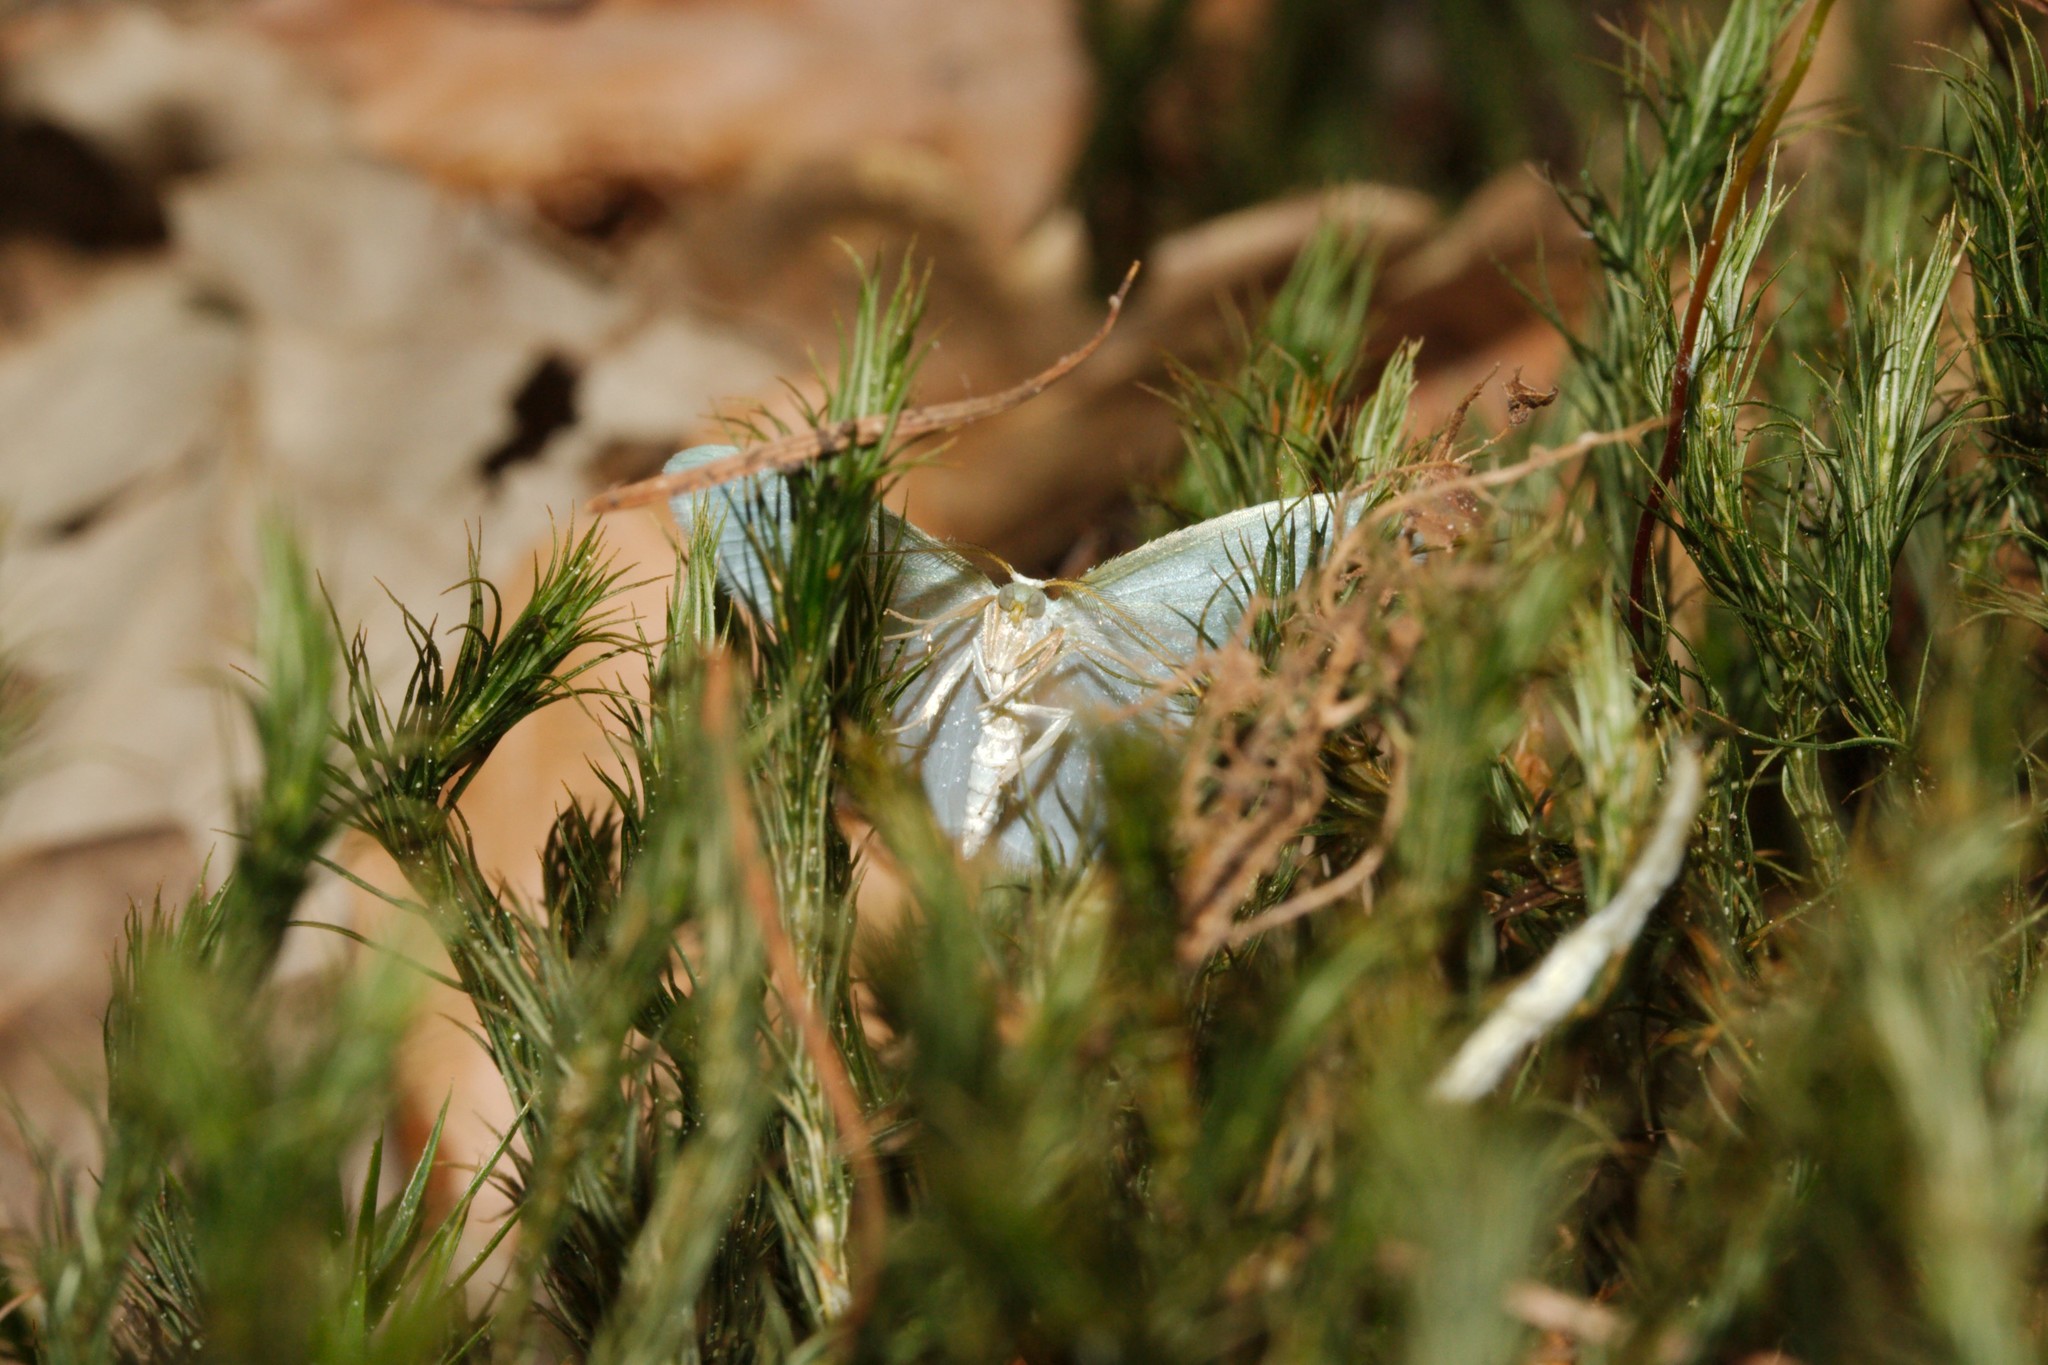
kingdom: Animalia
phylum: Arthropoda
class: Insecta
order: Lepidoptera
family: Geometridae
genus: Jodis
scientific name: Jodis lactearia
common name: Little emerald
